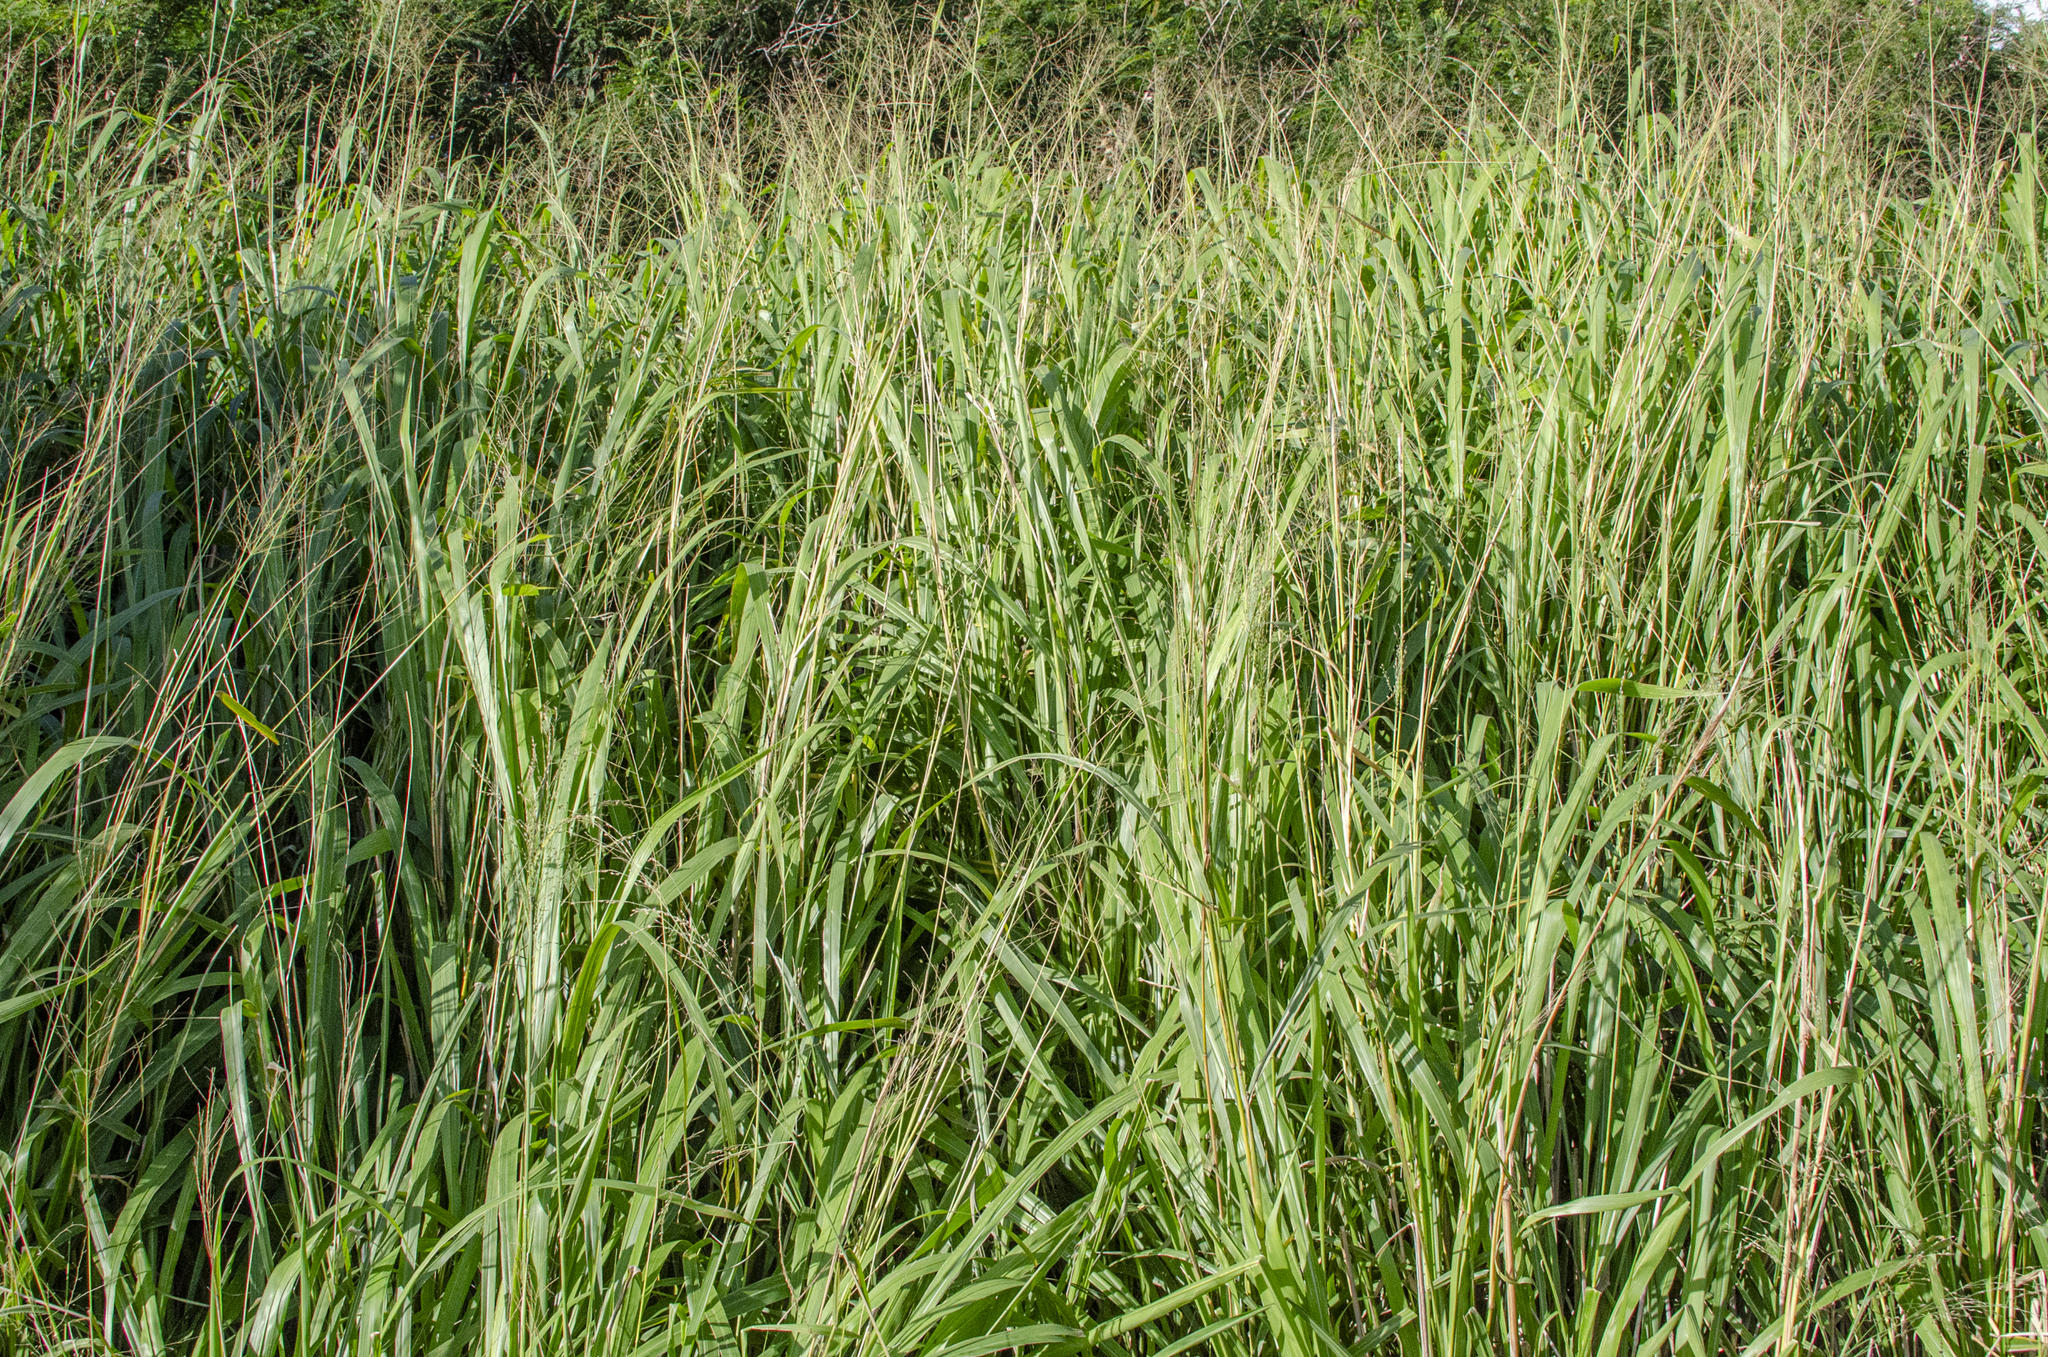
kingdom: Plantae
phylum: Tracheophyta
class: Liliopsida
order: Poales
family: Poaceae
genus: Megathyrsus
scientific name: Megathyrsus maximus
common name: Guineagrass
